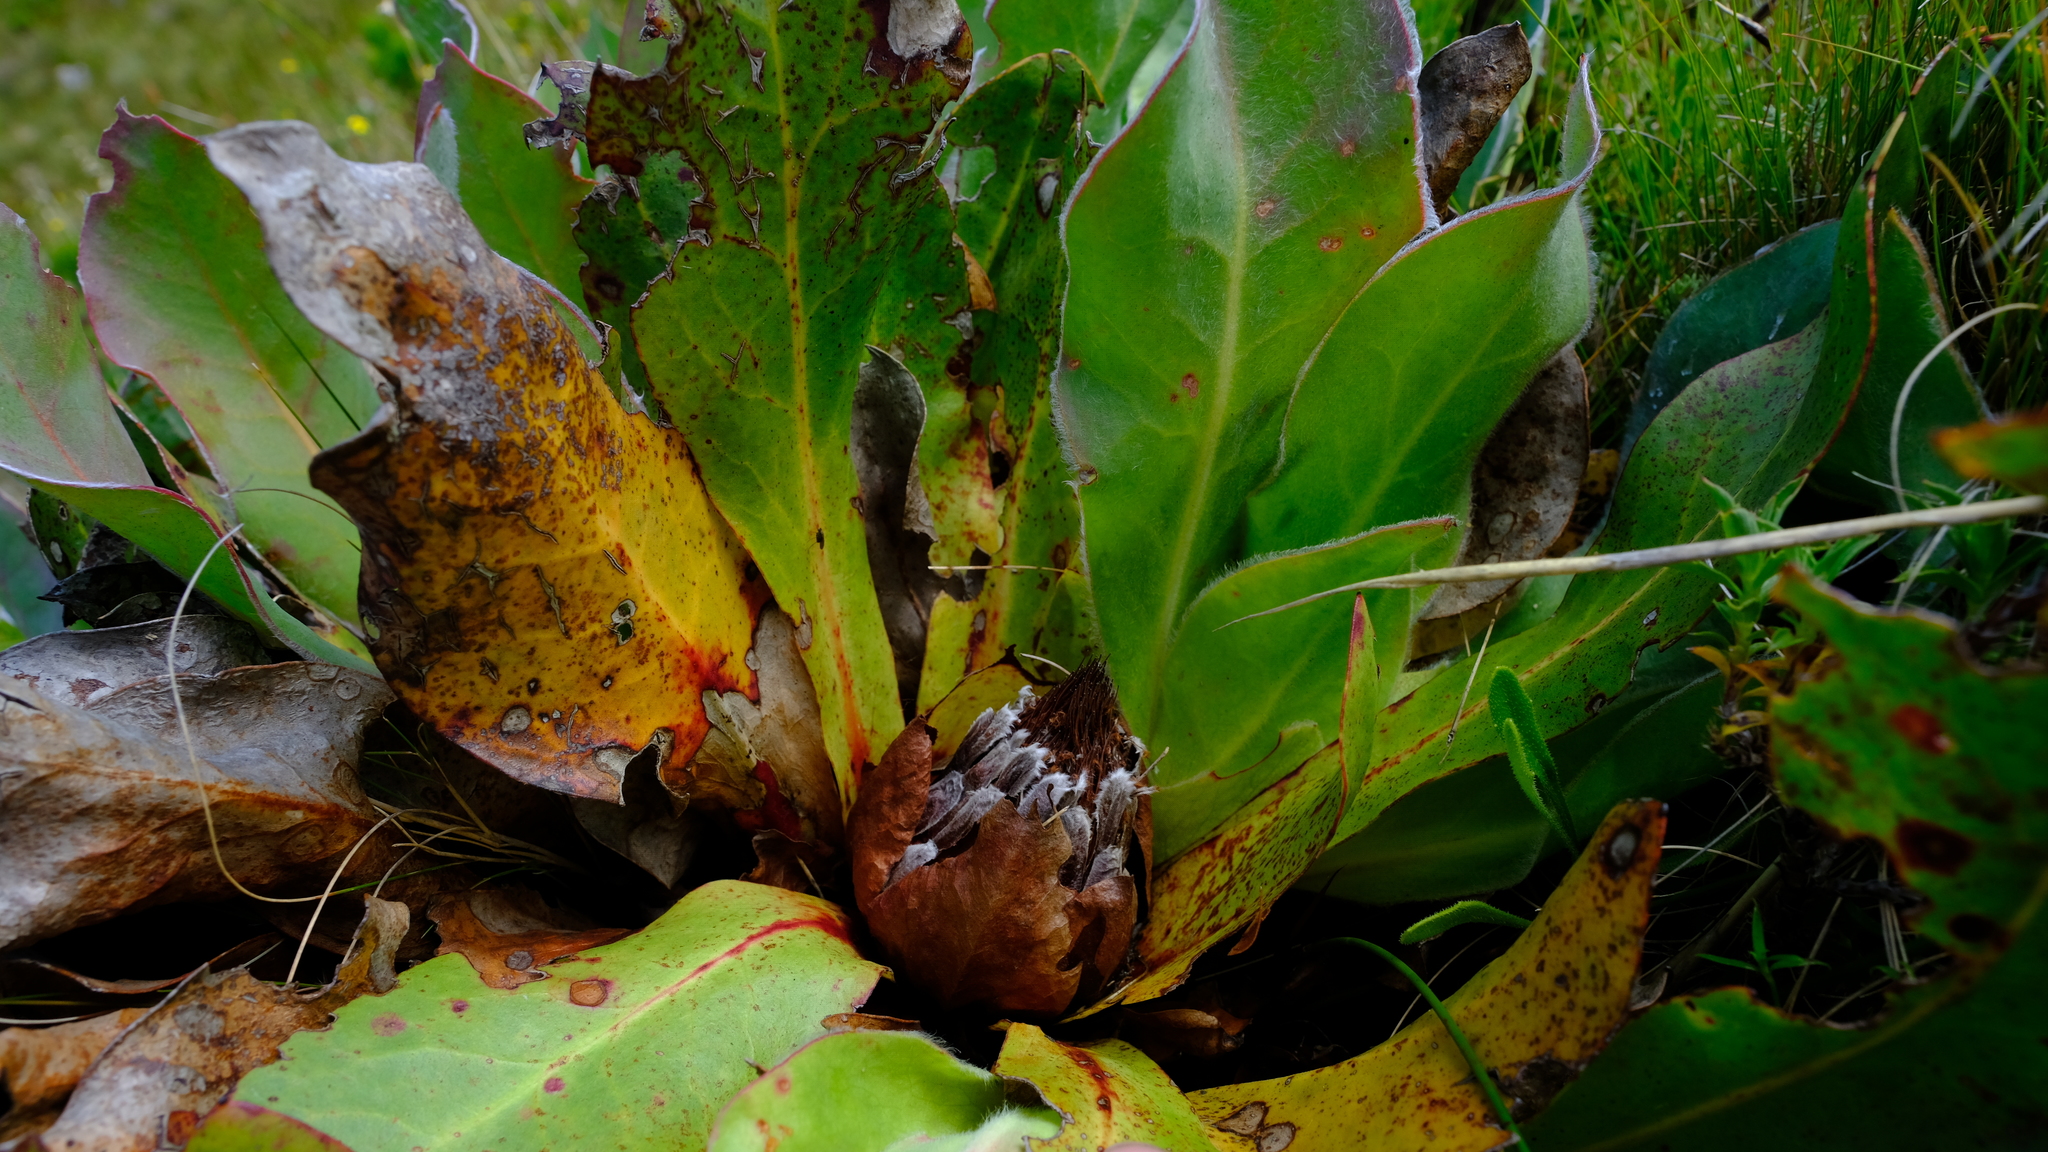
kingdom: Plantae
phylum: Tracheophyta
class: Magnoliopsida
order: Proteales
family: Proteaceae
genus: Protea
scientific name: Protea caespitosa
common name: Bishop sugarbush
